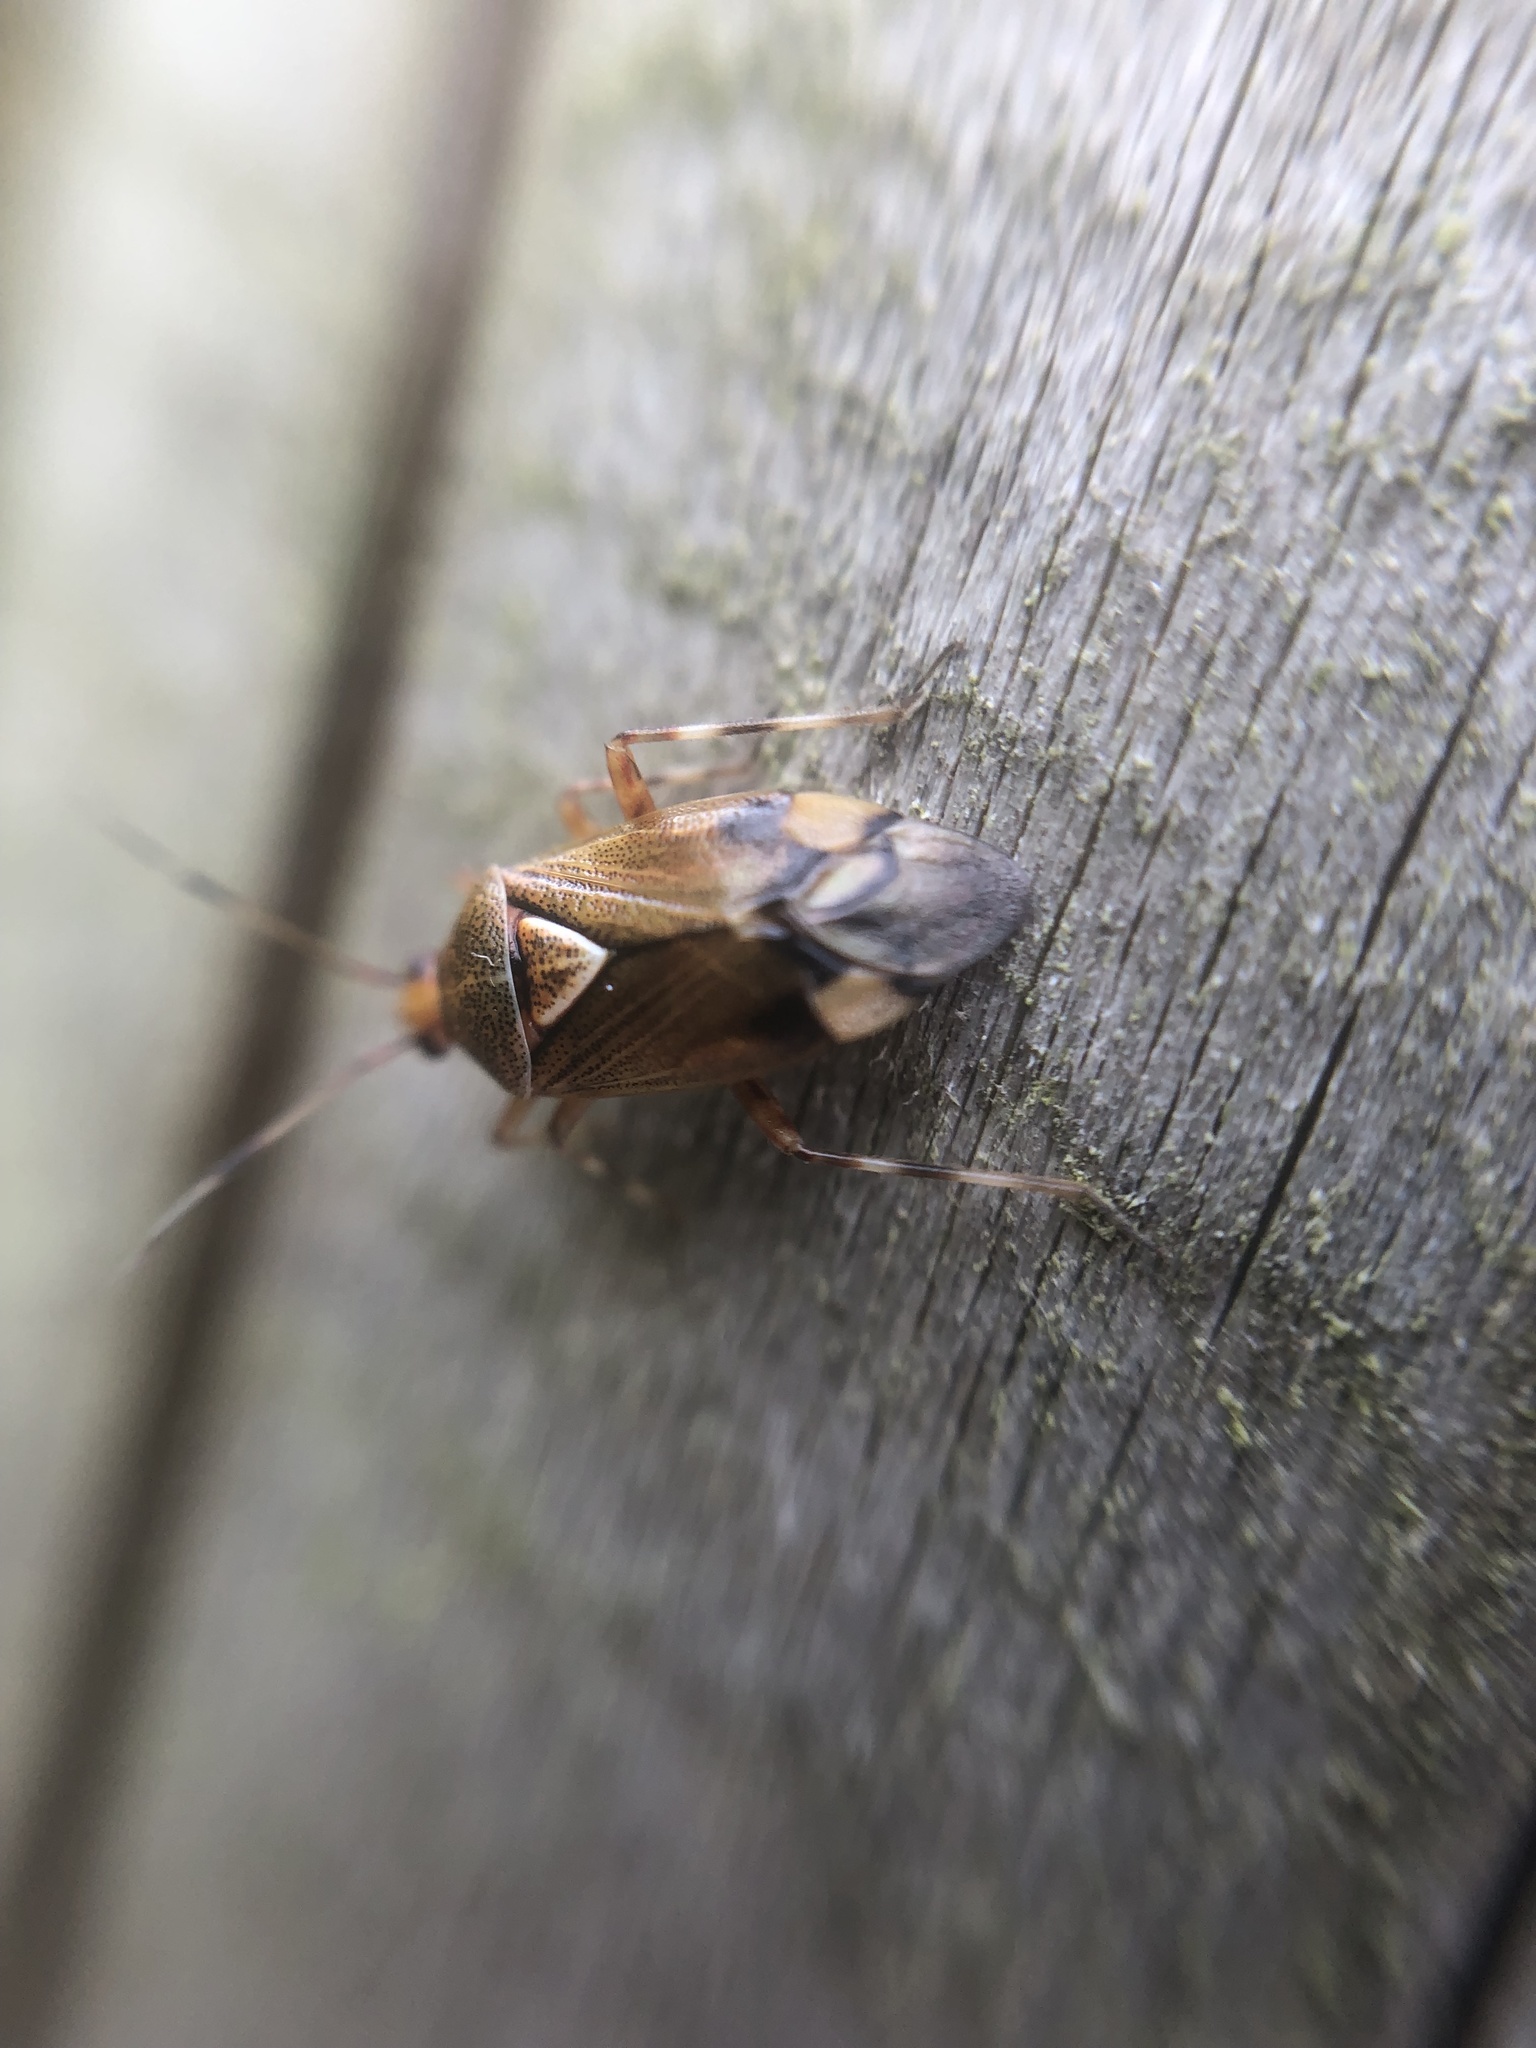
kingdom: Animalia
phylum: Arthropoda
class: Insecta
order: Hemiptera
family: Miridae
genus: Deraeocoris
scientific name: Deraeocoris flavilinea
